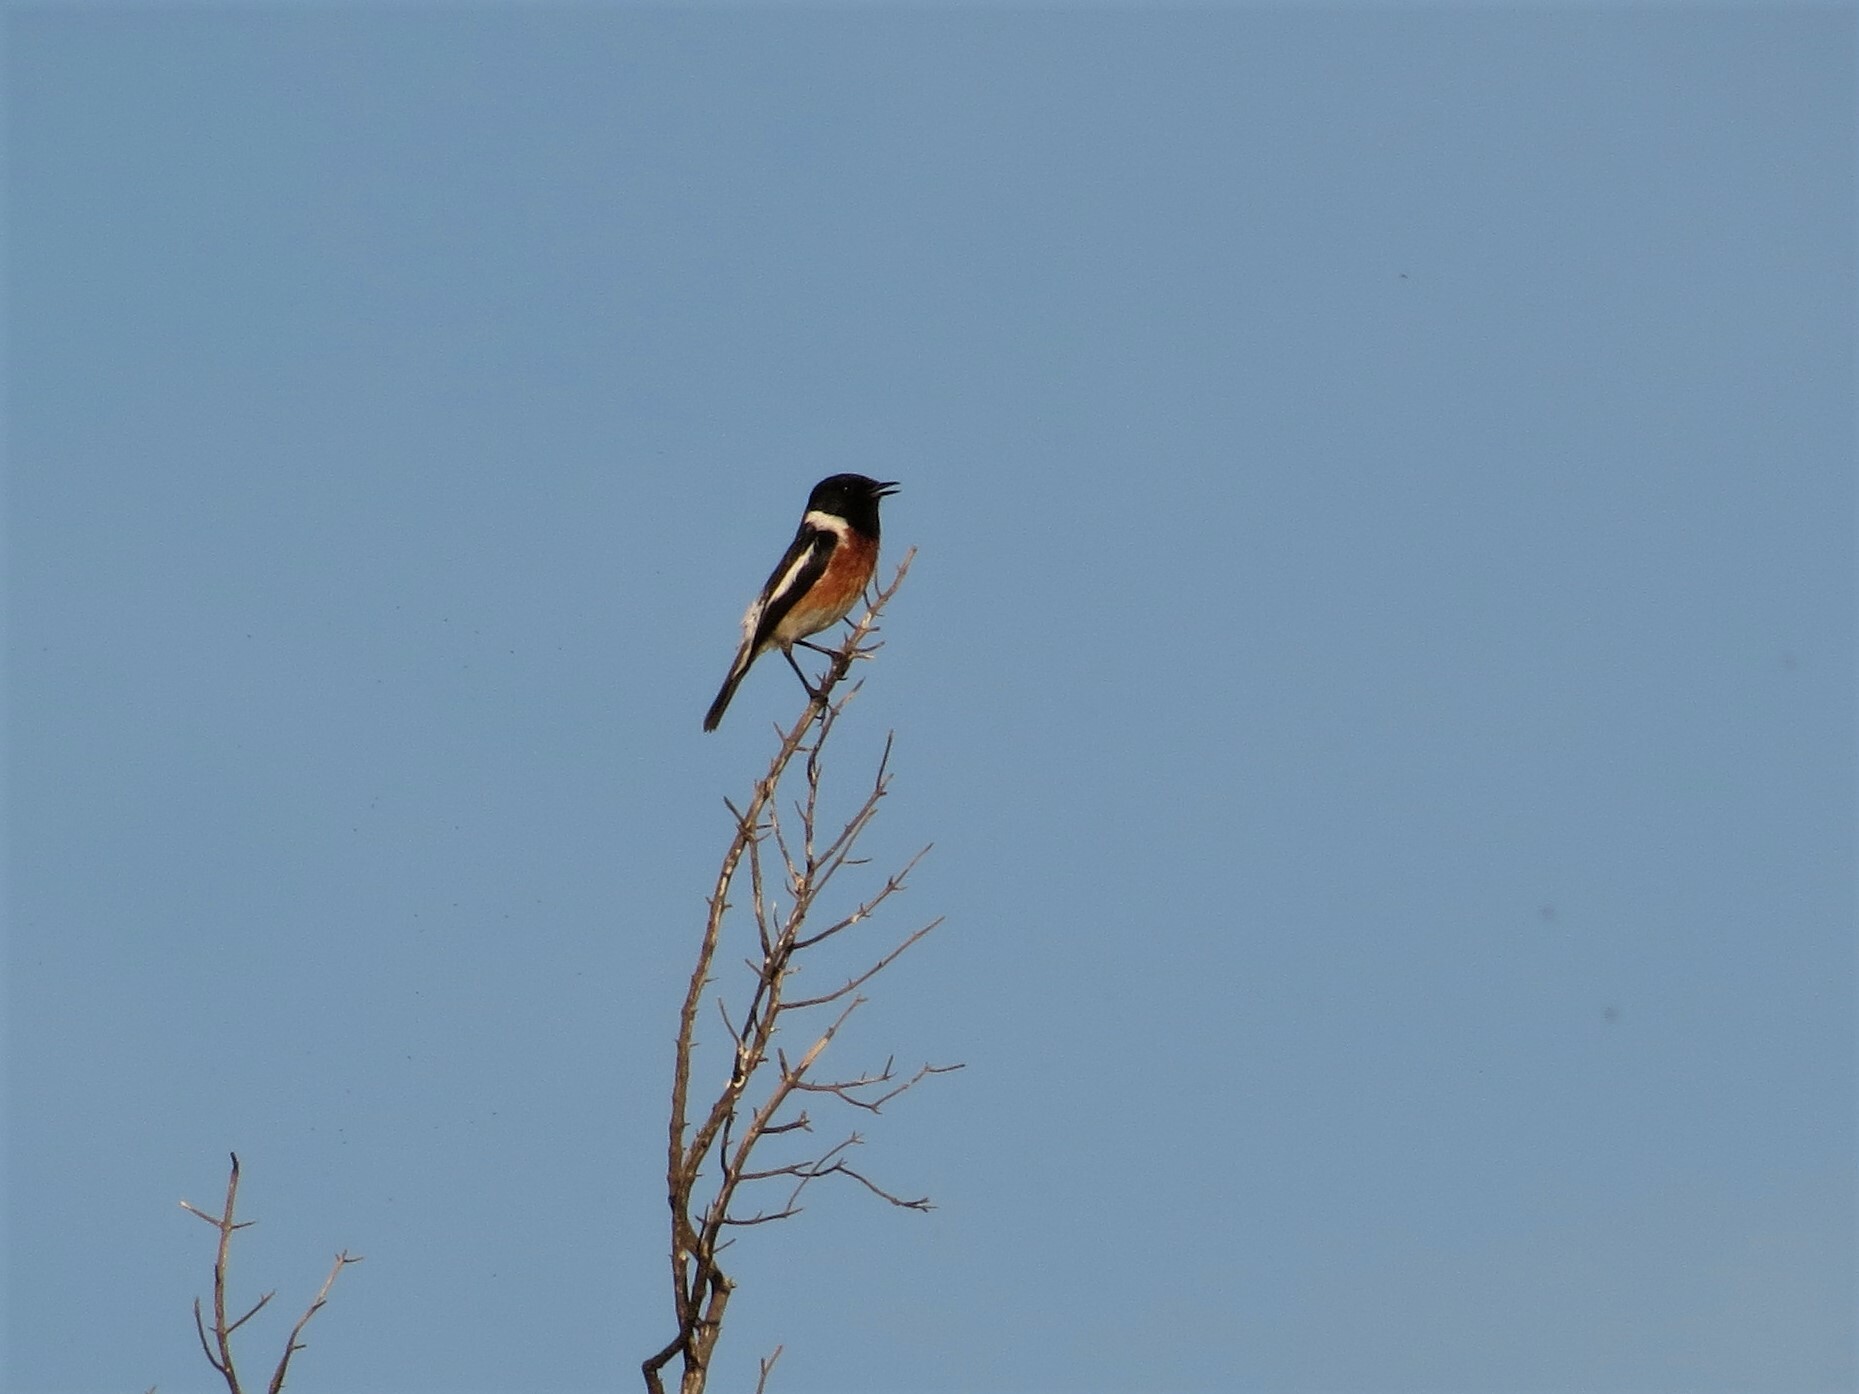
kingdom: Animalia
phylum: Chordata
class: Aves
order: Passeriformes
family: Muscicapidae
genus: Saxicola
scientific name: Saxicola torquatus
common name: African stonechat
